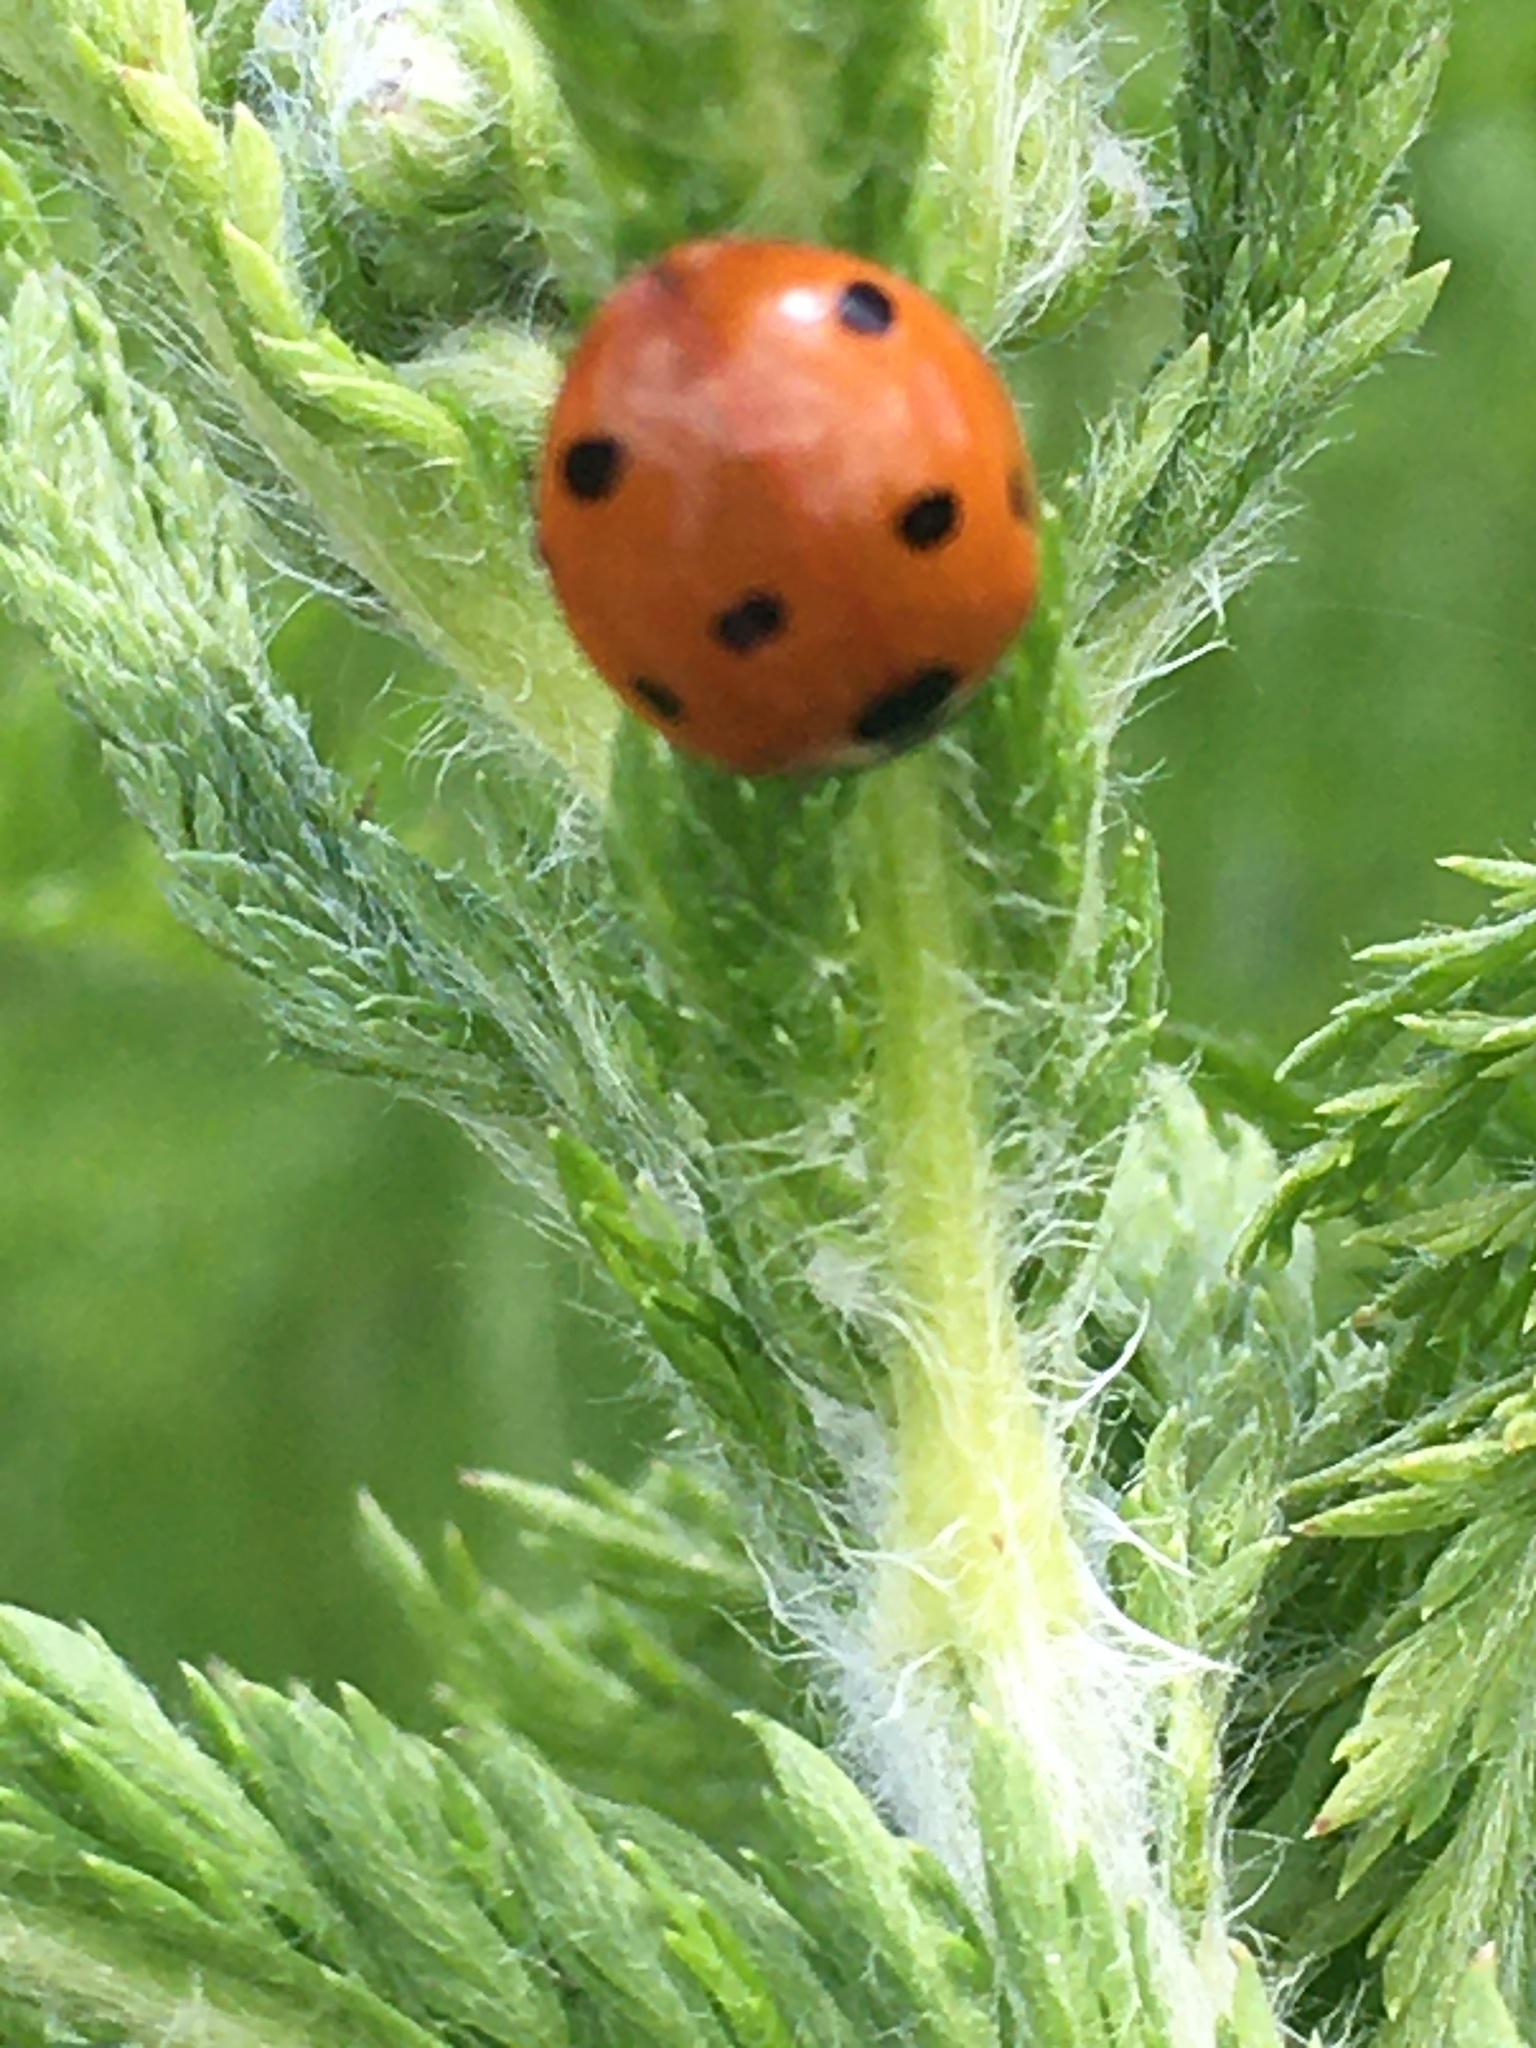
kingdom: Animalia
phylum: Arthropoda
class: Insecta
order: Coleoptera
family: Coccinellidae
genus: Coccinella
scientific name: Coccinella septempunctata
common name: Sevenspotted lady beetle
